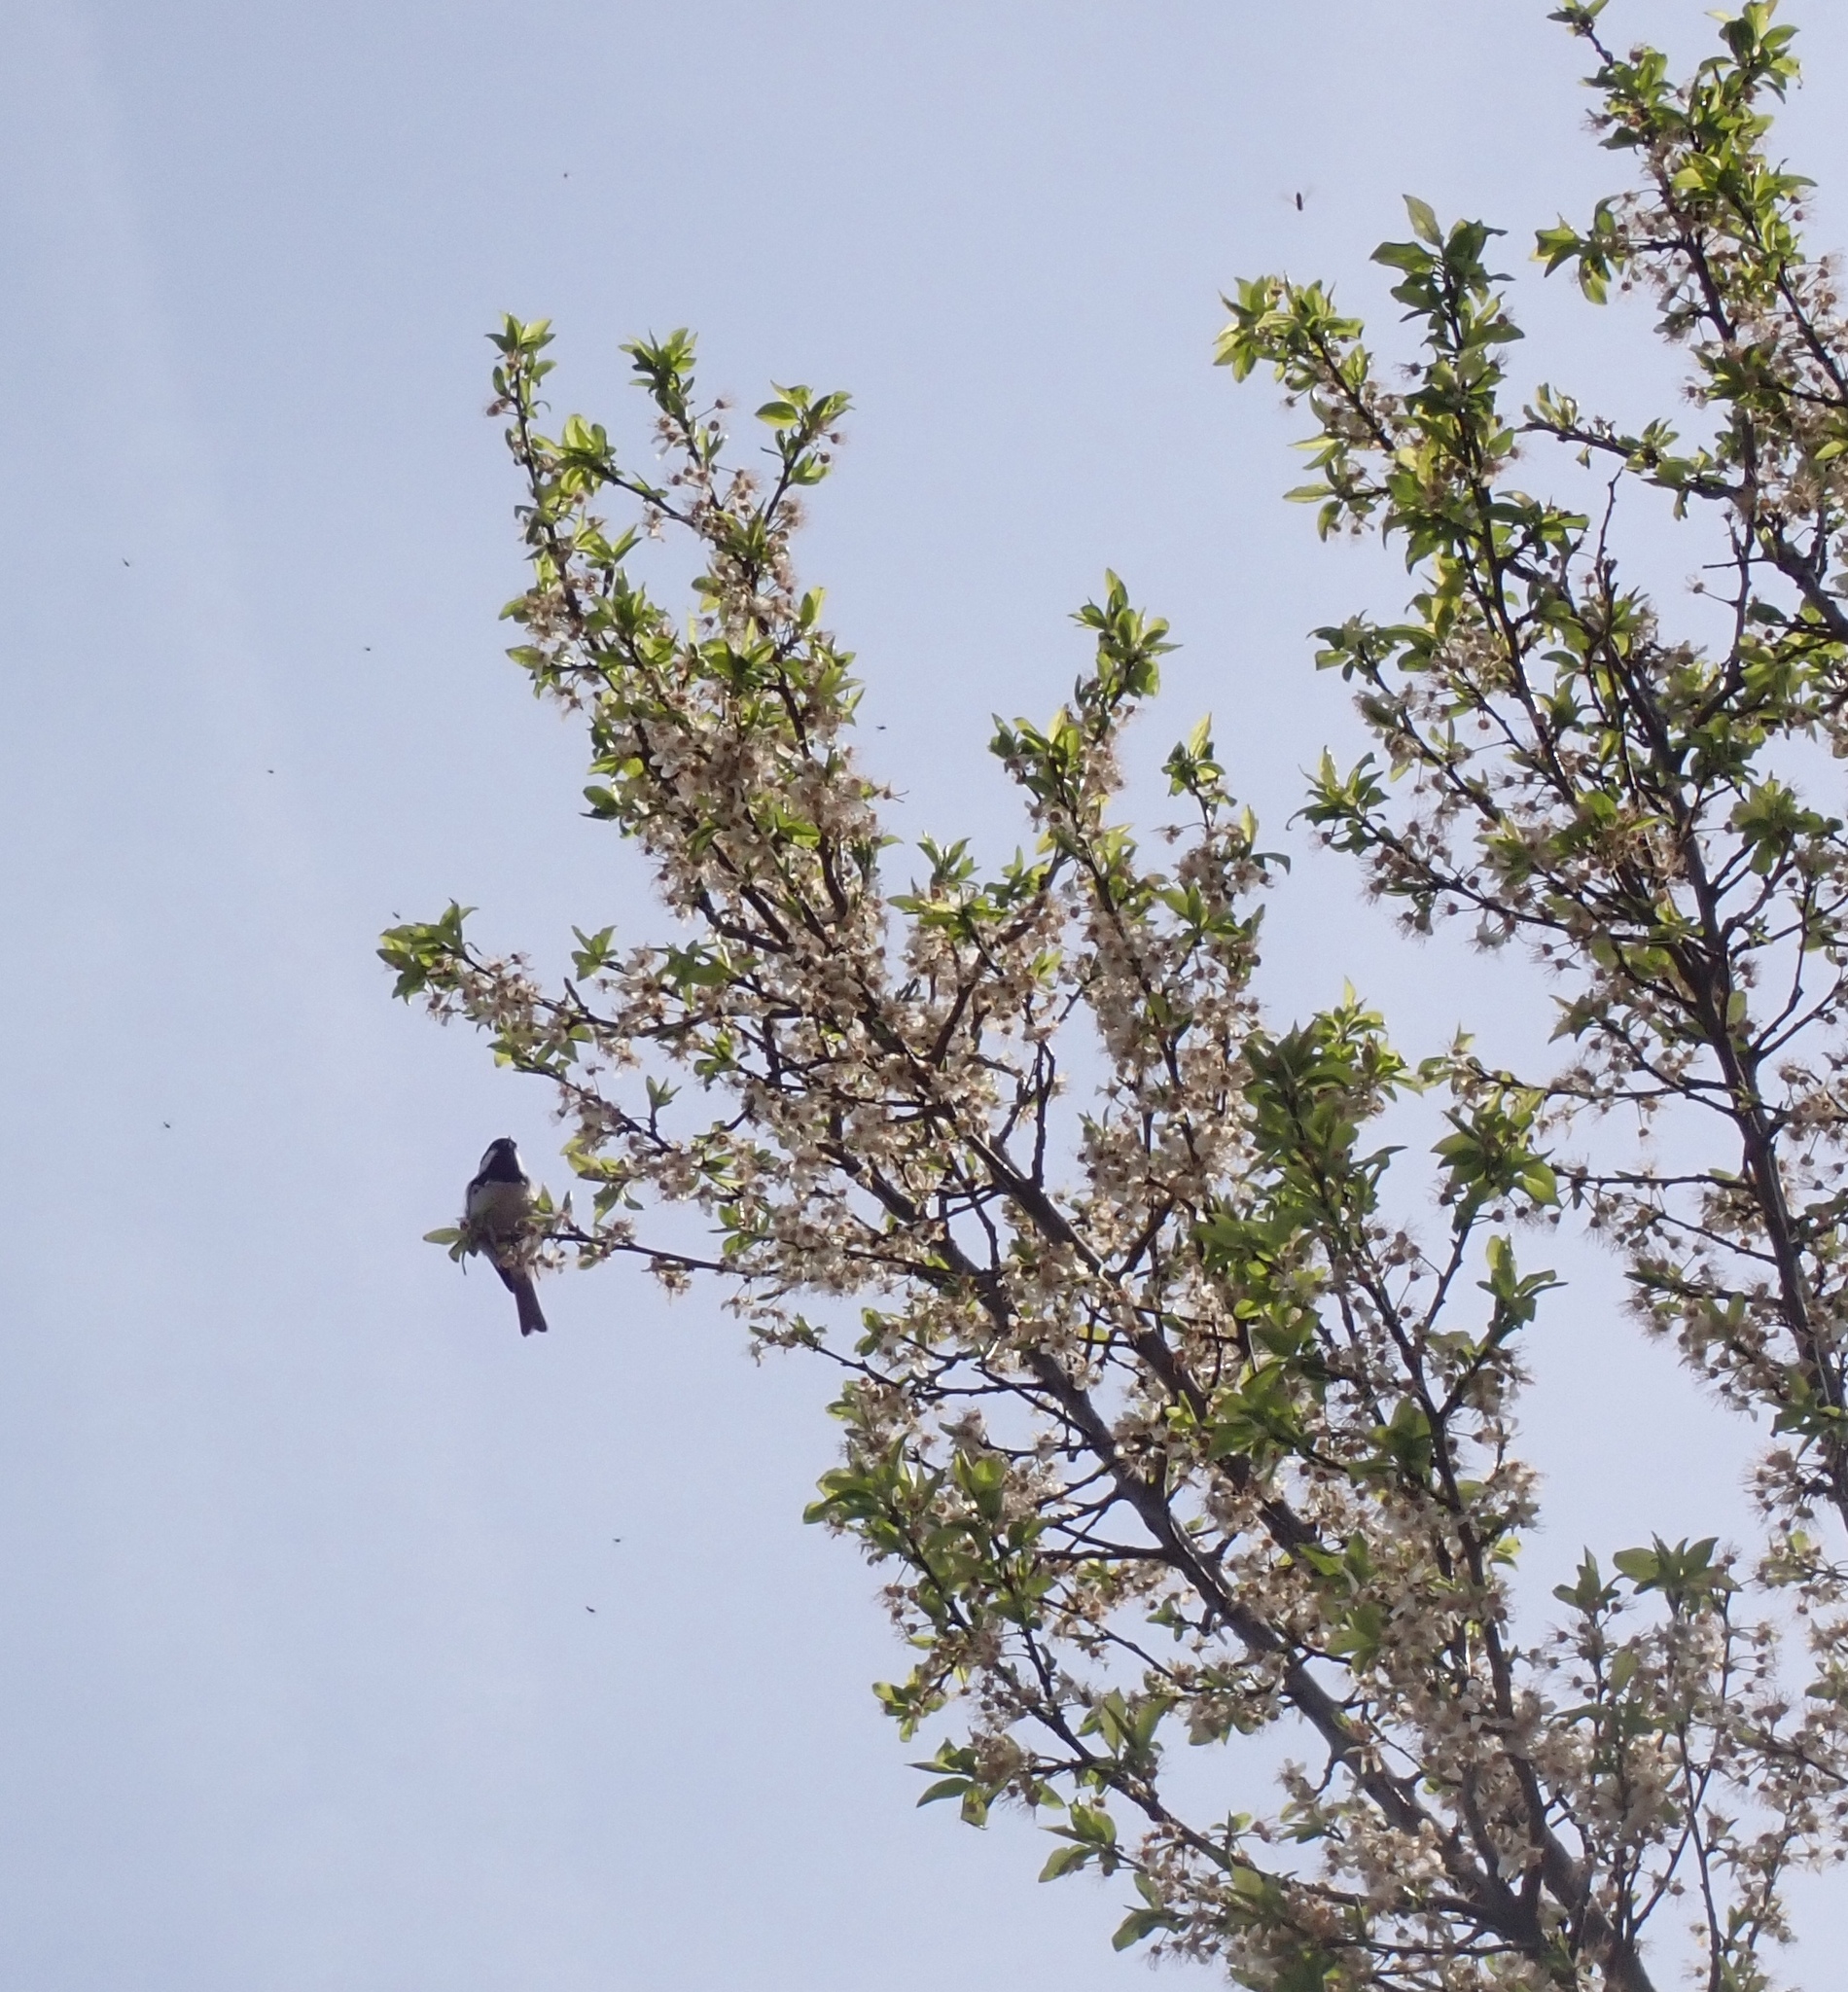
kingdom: Animalia
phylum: Chordata
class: Aves
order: Passeriformes
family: Paridae
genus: Periparus
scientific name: Periparus ater
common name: Coal tit
